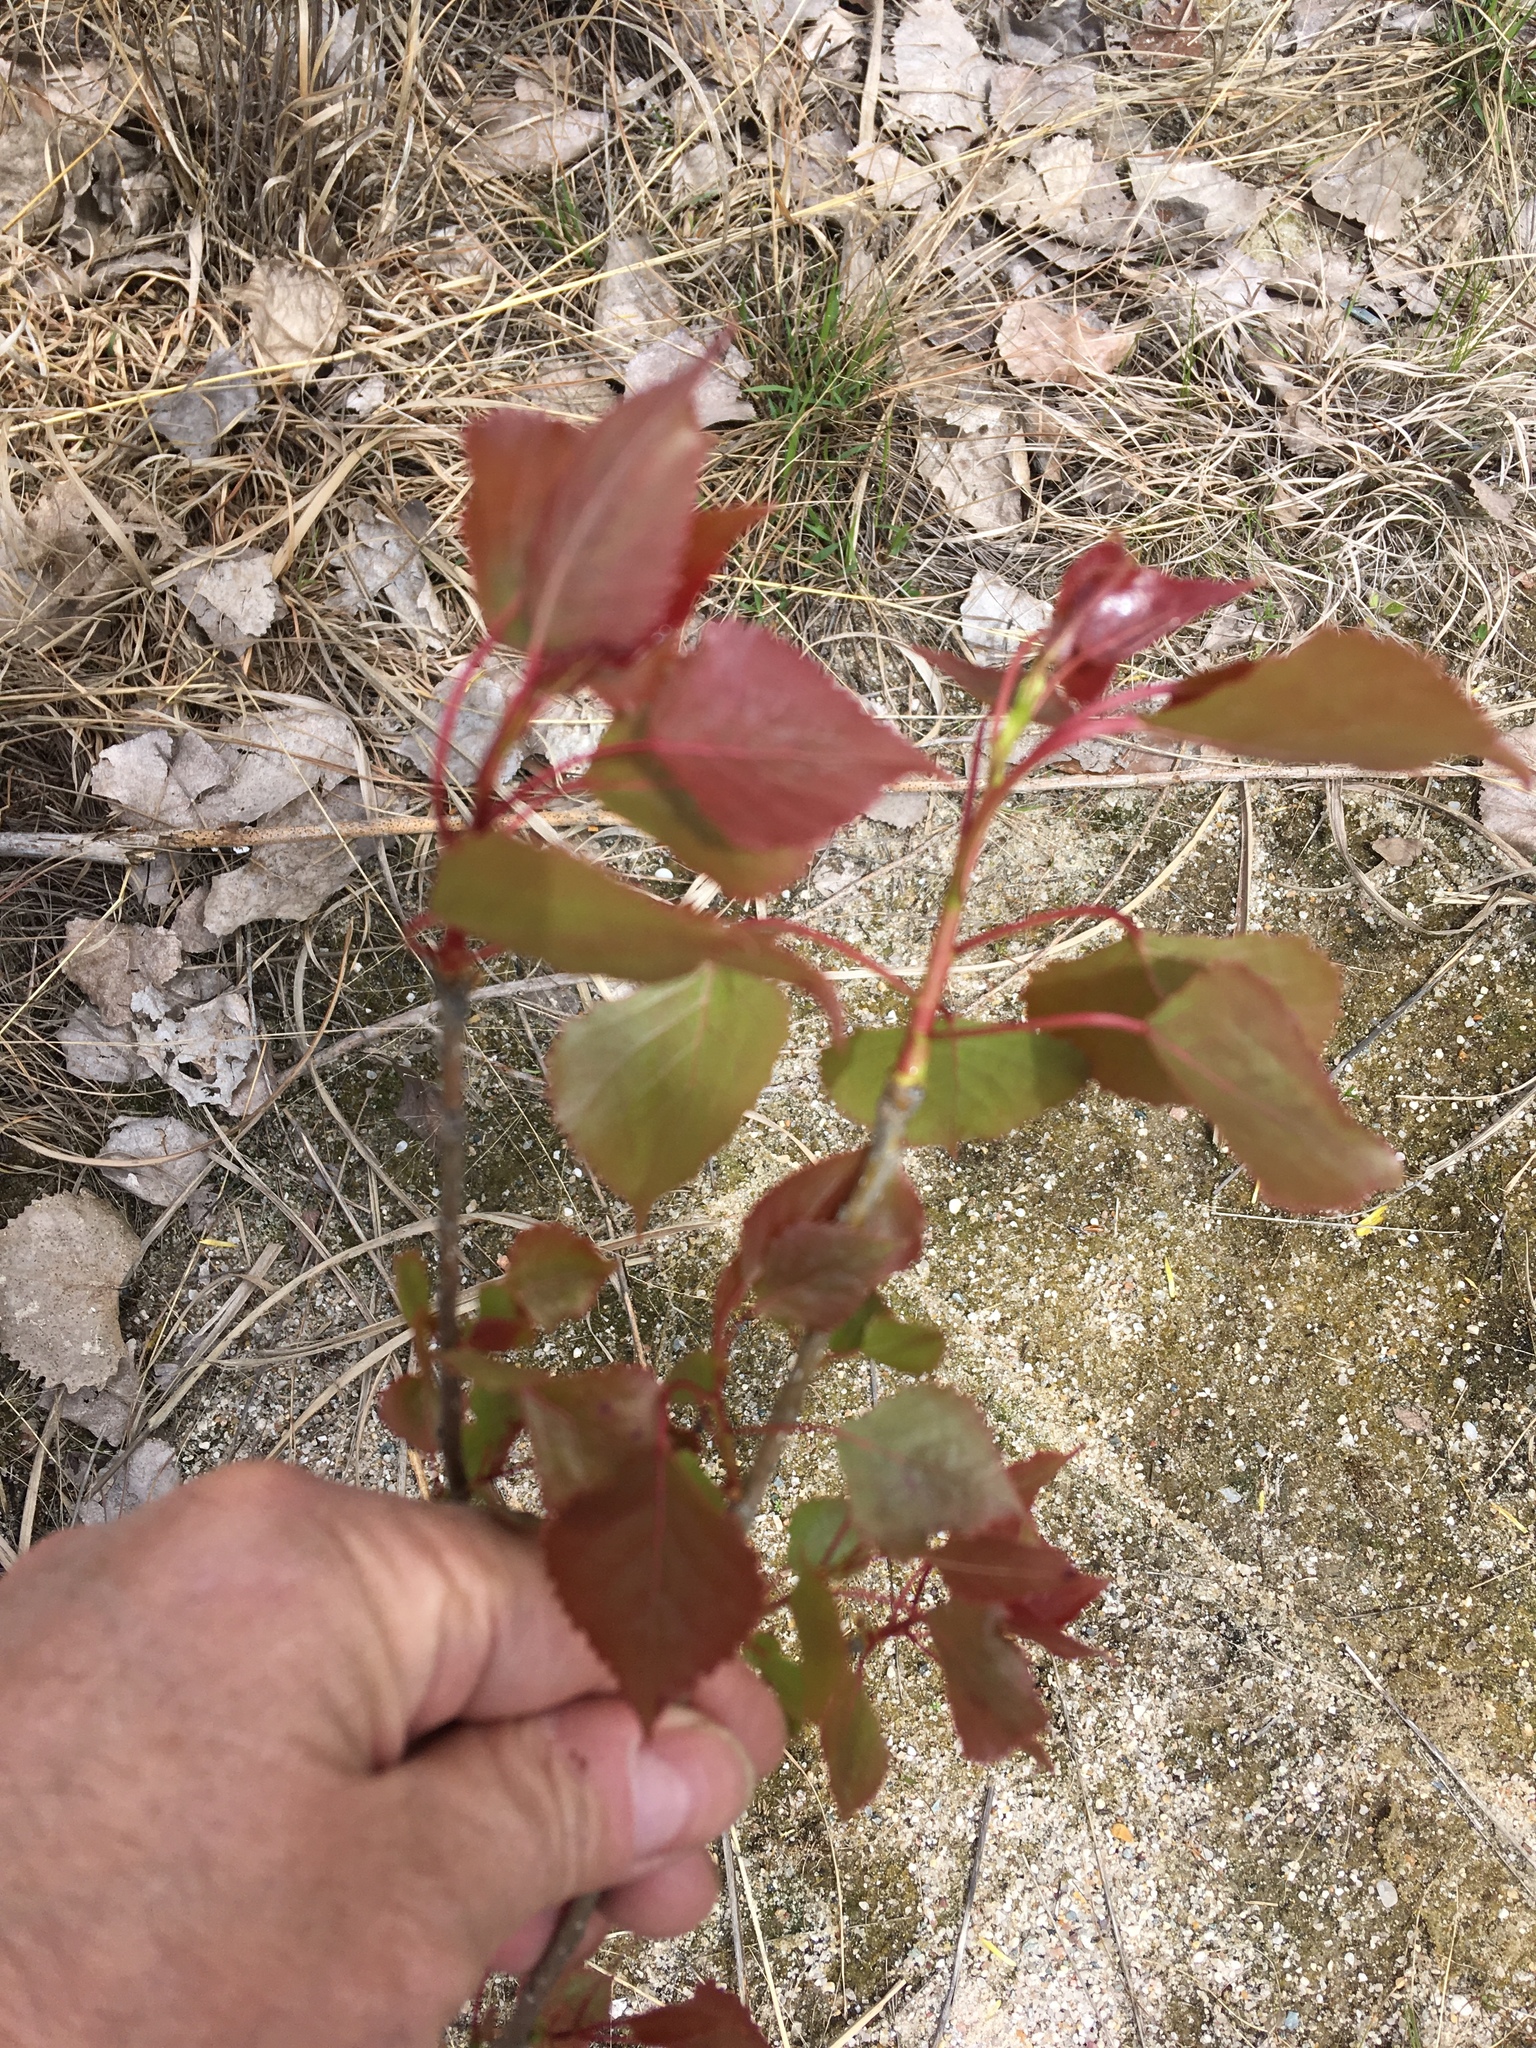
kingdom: Plantae
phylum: Tracheophyta
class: Magnoliopsida
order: Malpighiales
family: Salicaceae
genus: Populus
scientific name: Populus tremuloides
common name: Quaking aspen
